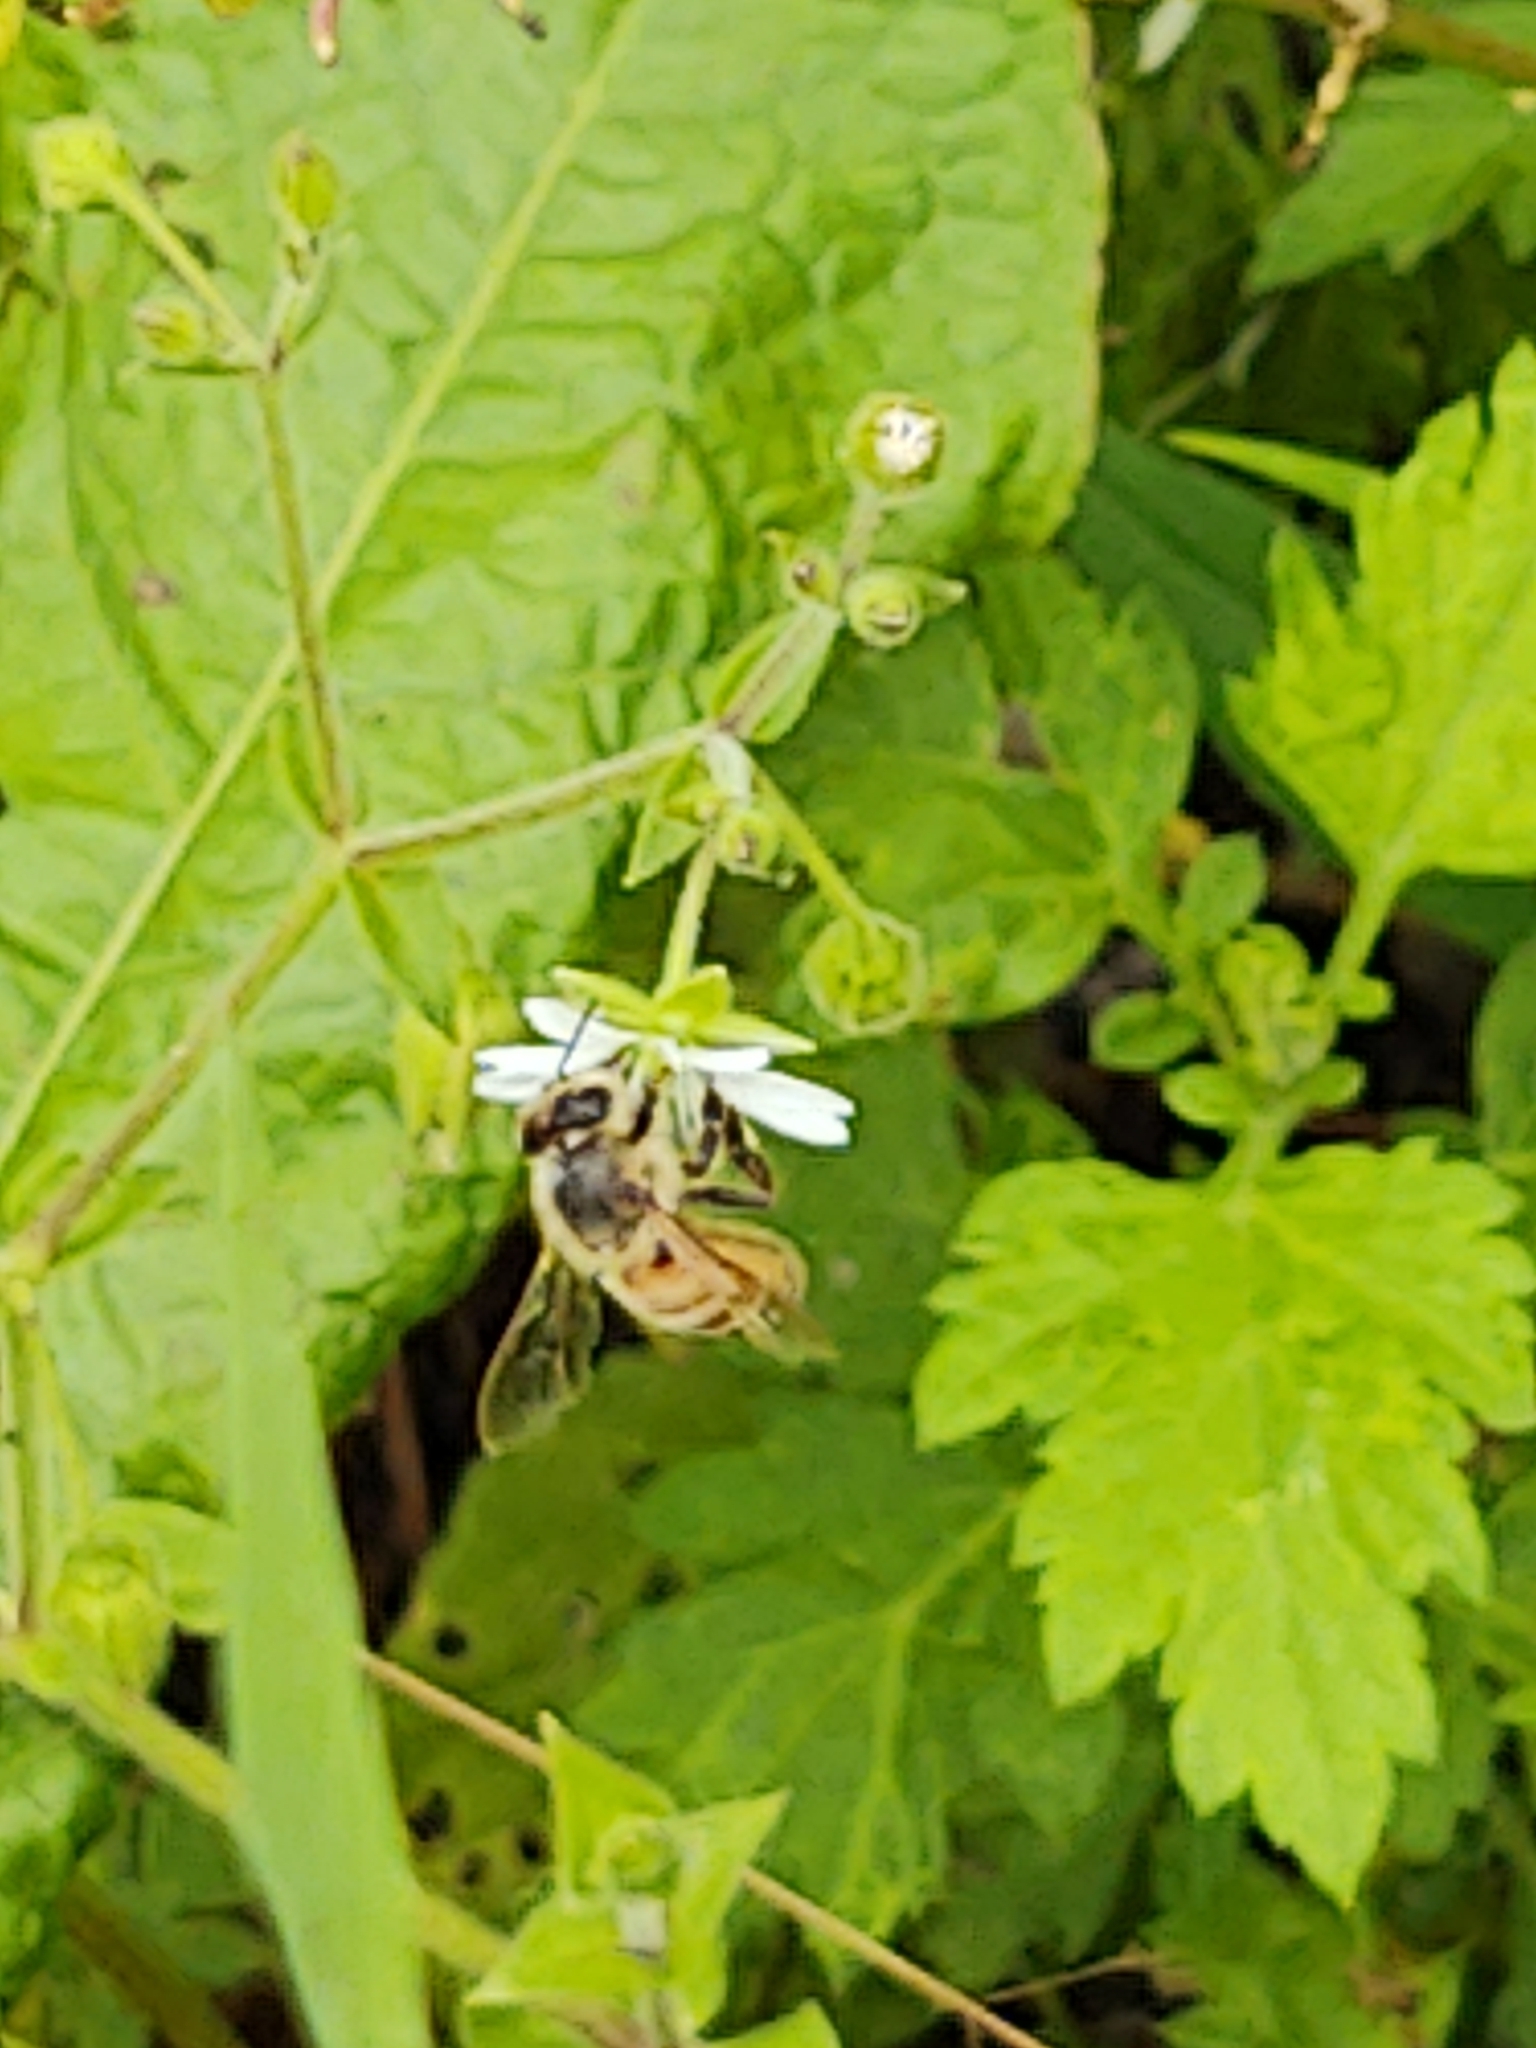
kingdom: Animalia
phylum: Arthropoda
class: Insecta
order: Hymenoptera
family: Apidae
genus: Apis
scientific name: Apis mellifera
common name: Honey bee
